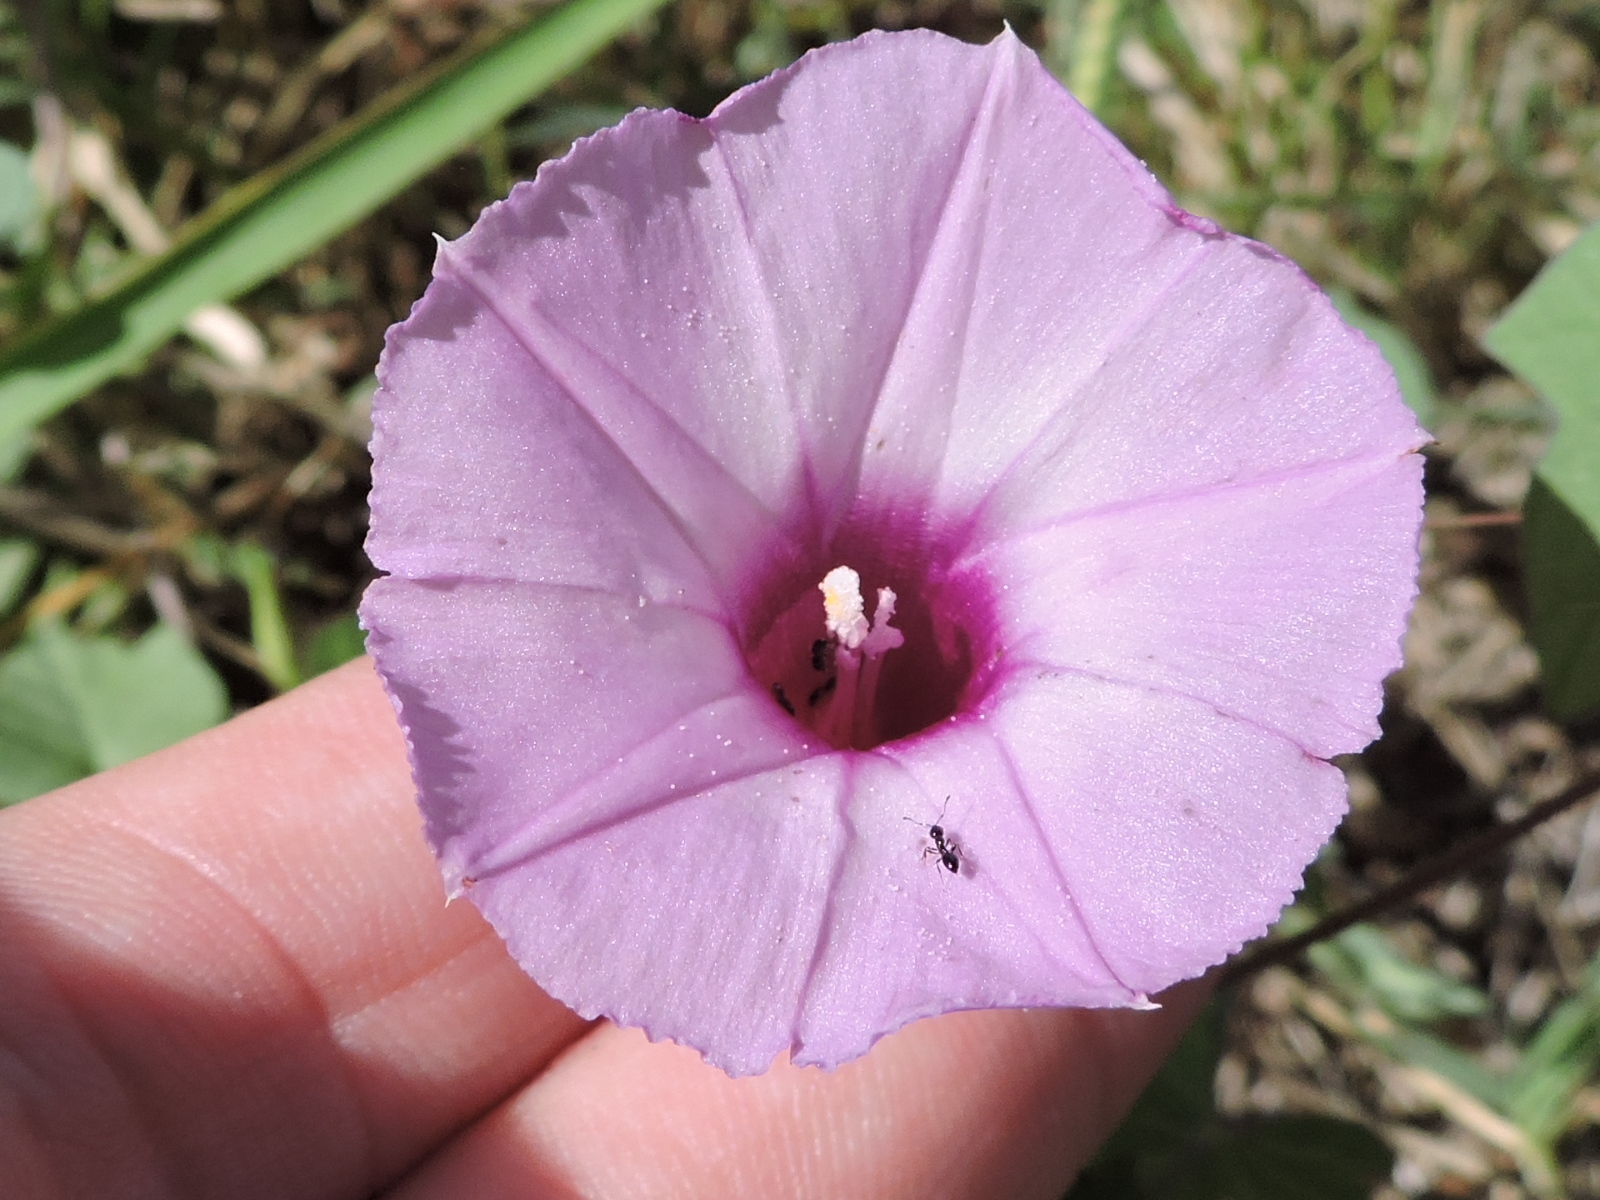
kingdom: Plantae
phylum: Tracheophyta
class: Magnoliopsida
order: Solanales
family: Convolvulaceae
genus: Ipomoea
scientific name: Ipomoea cordatotriloba
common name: Cotton morning glory
